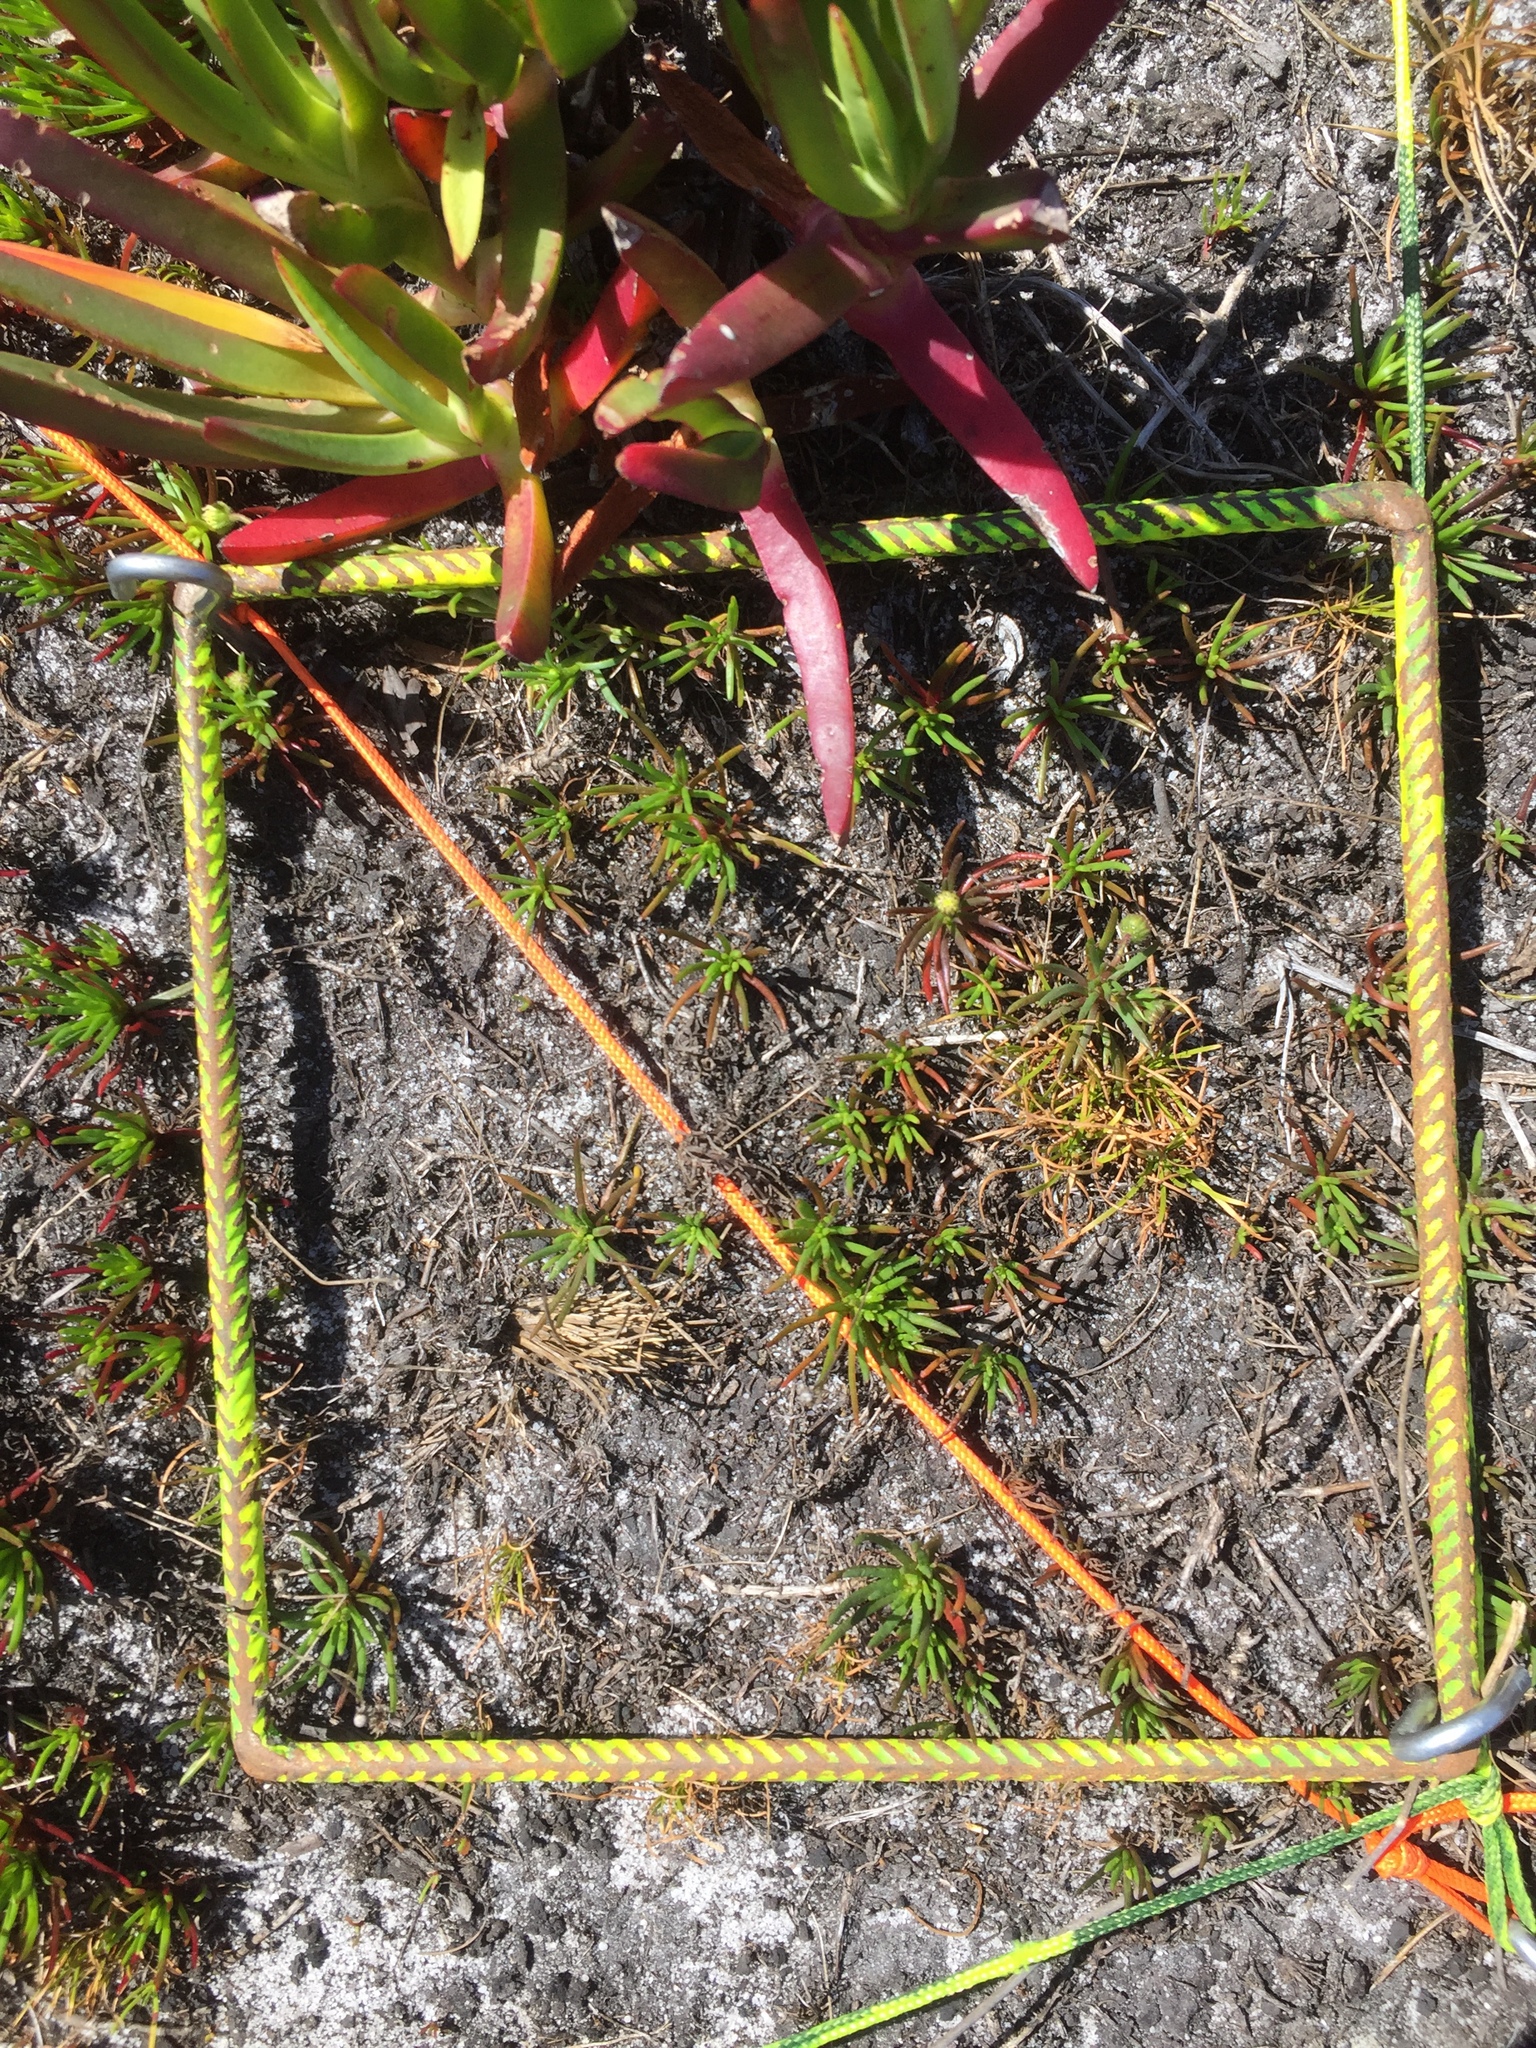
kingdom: Plantae
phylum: Tracheophyta
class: Magnoliopsida
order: Asterales
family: Asteraceae
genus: Felicia
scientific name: Felicia tenella
